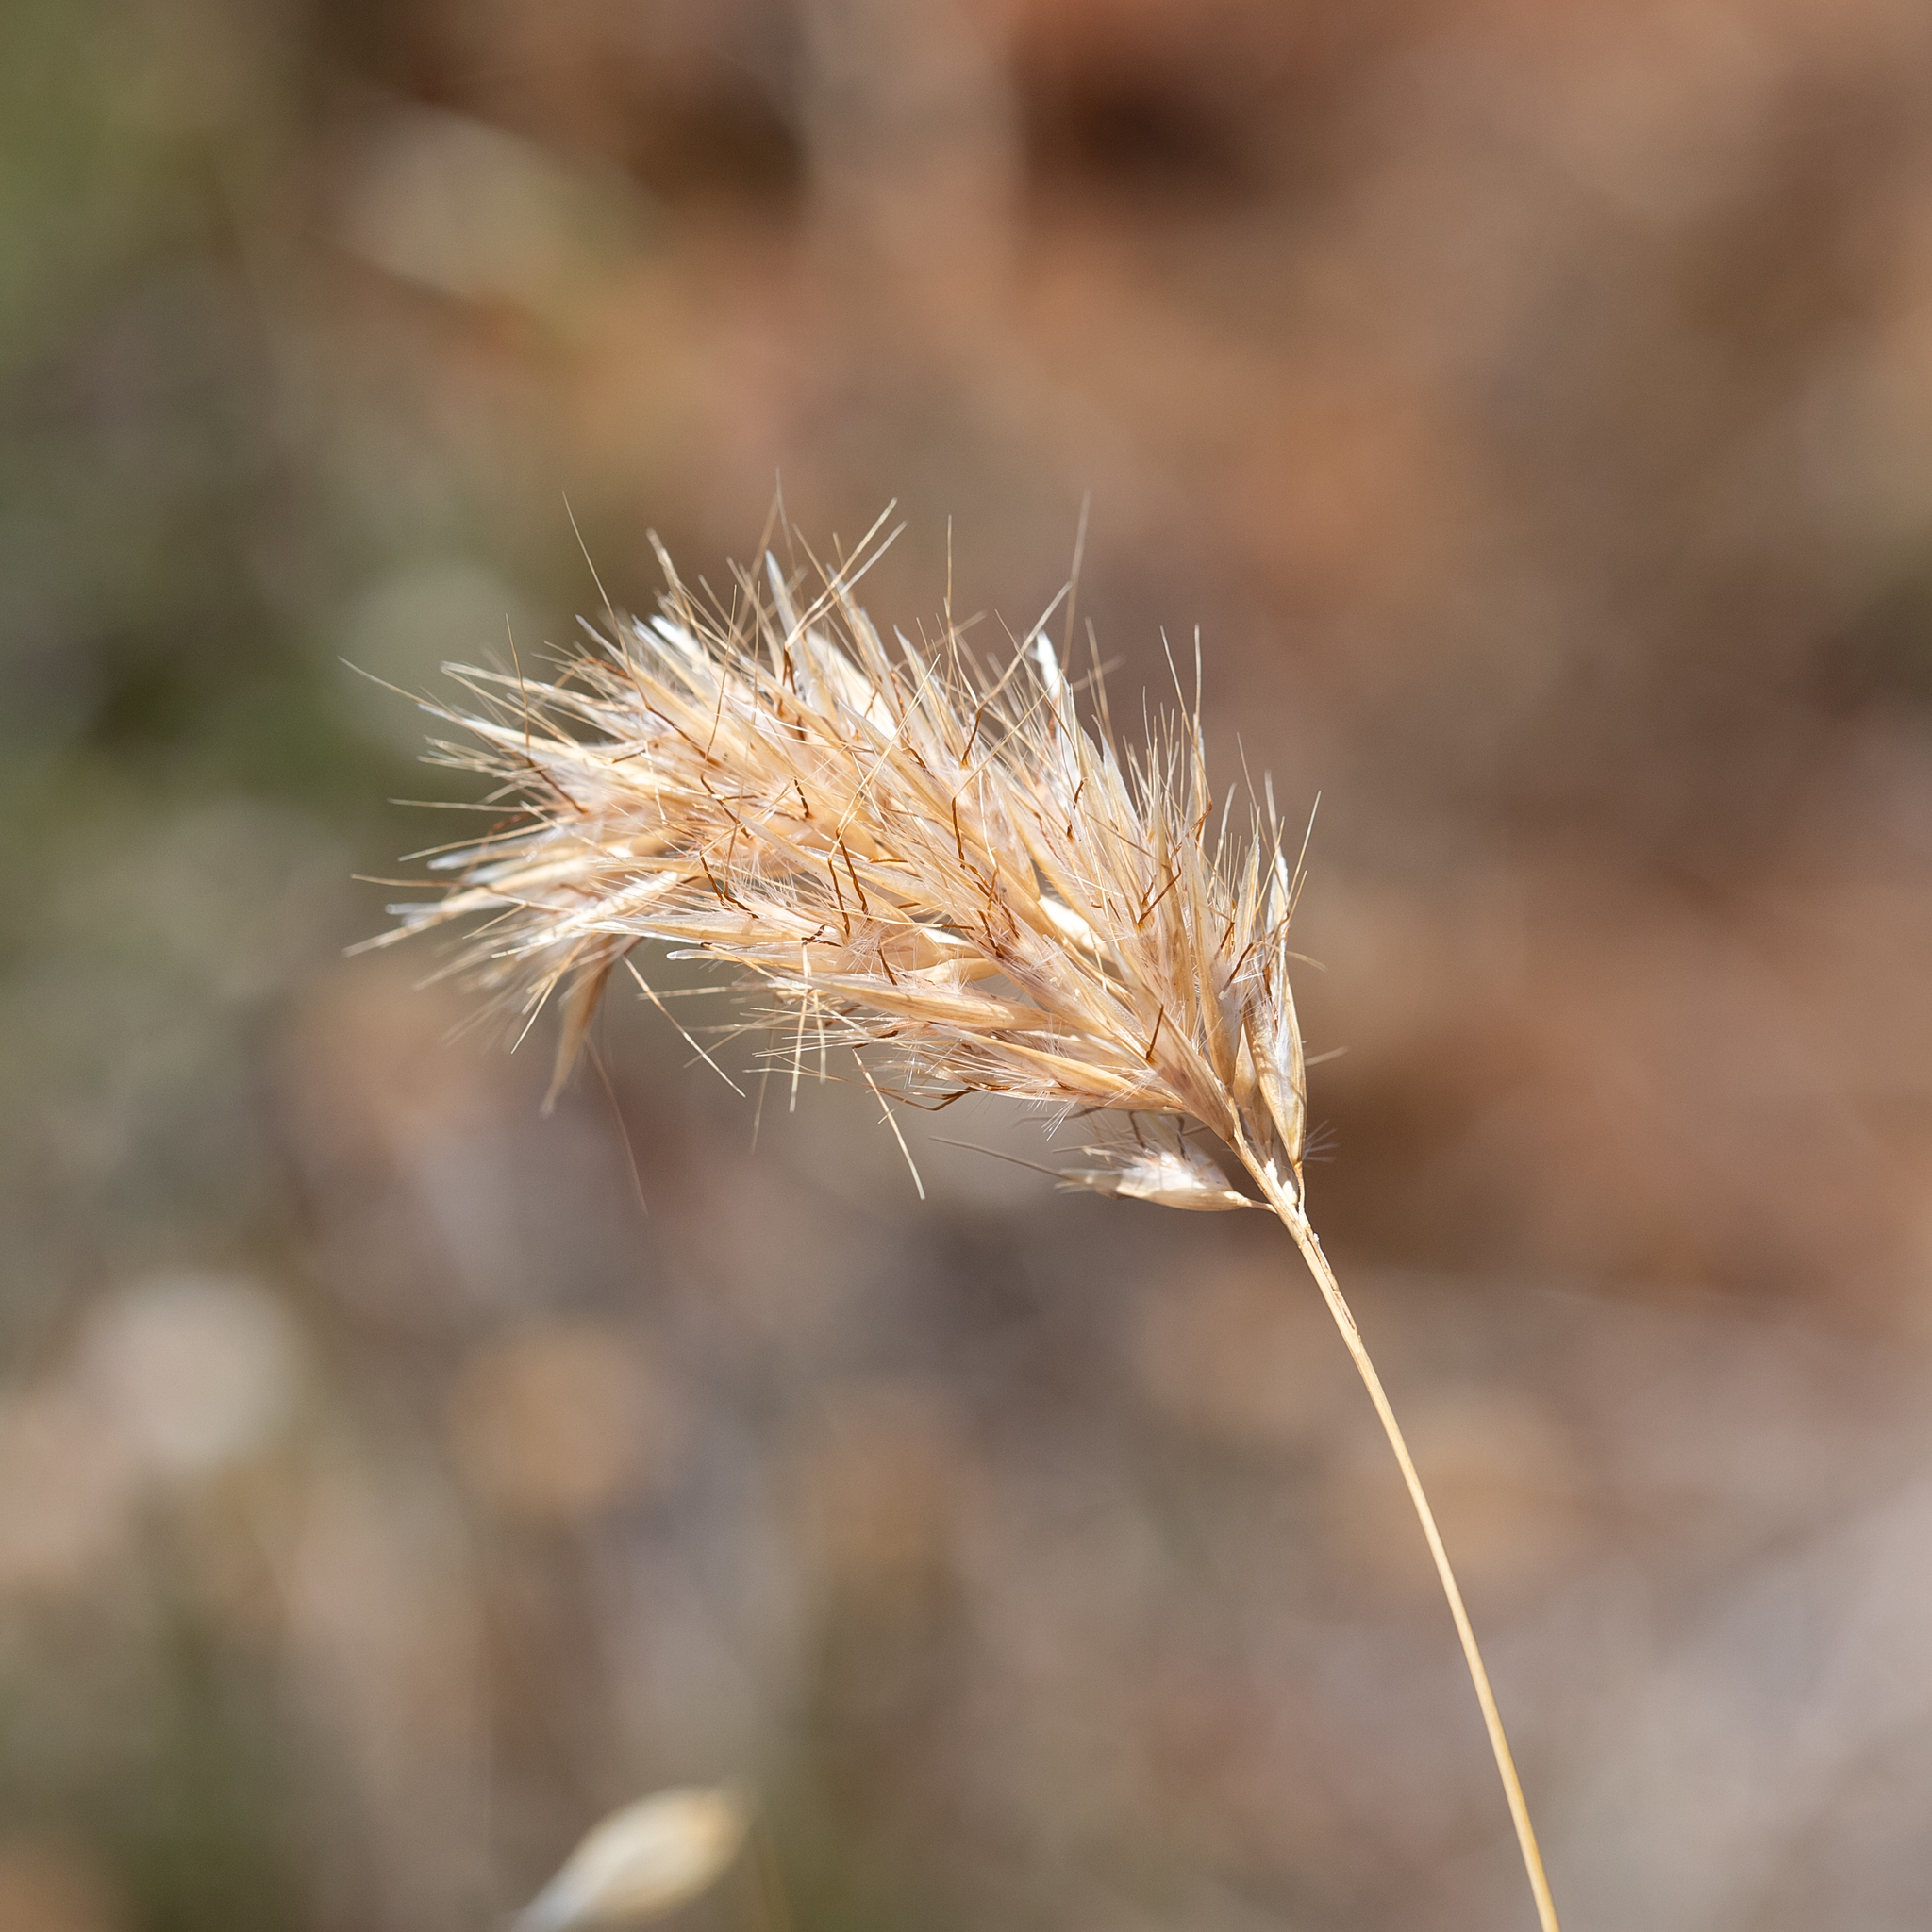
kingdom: Plantae
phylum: Tracheophyta
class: Liliopsida
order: Poales
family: Poaceae
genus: Rytidosperma
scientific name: Rytidosperma setaceum
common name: Small-flower wallaby grass
